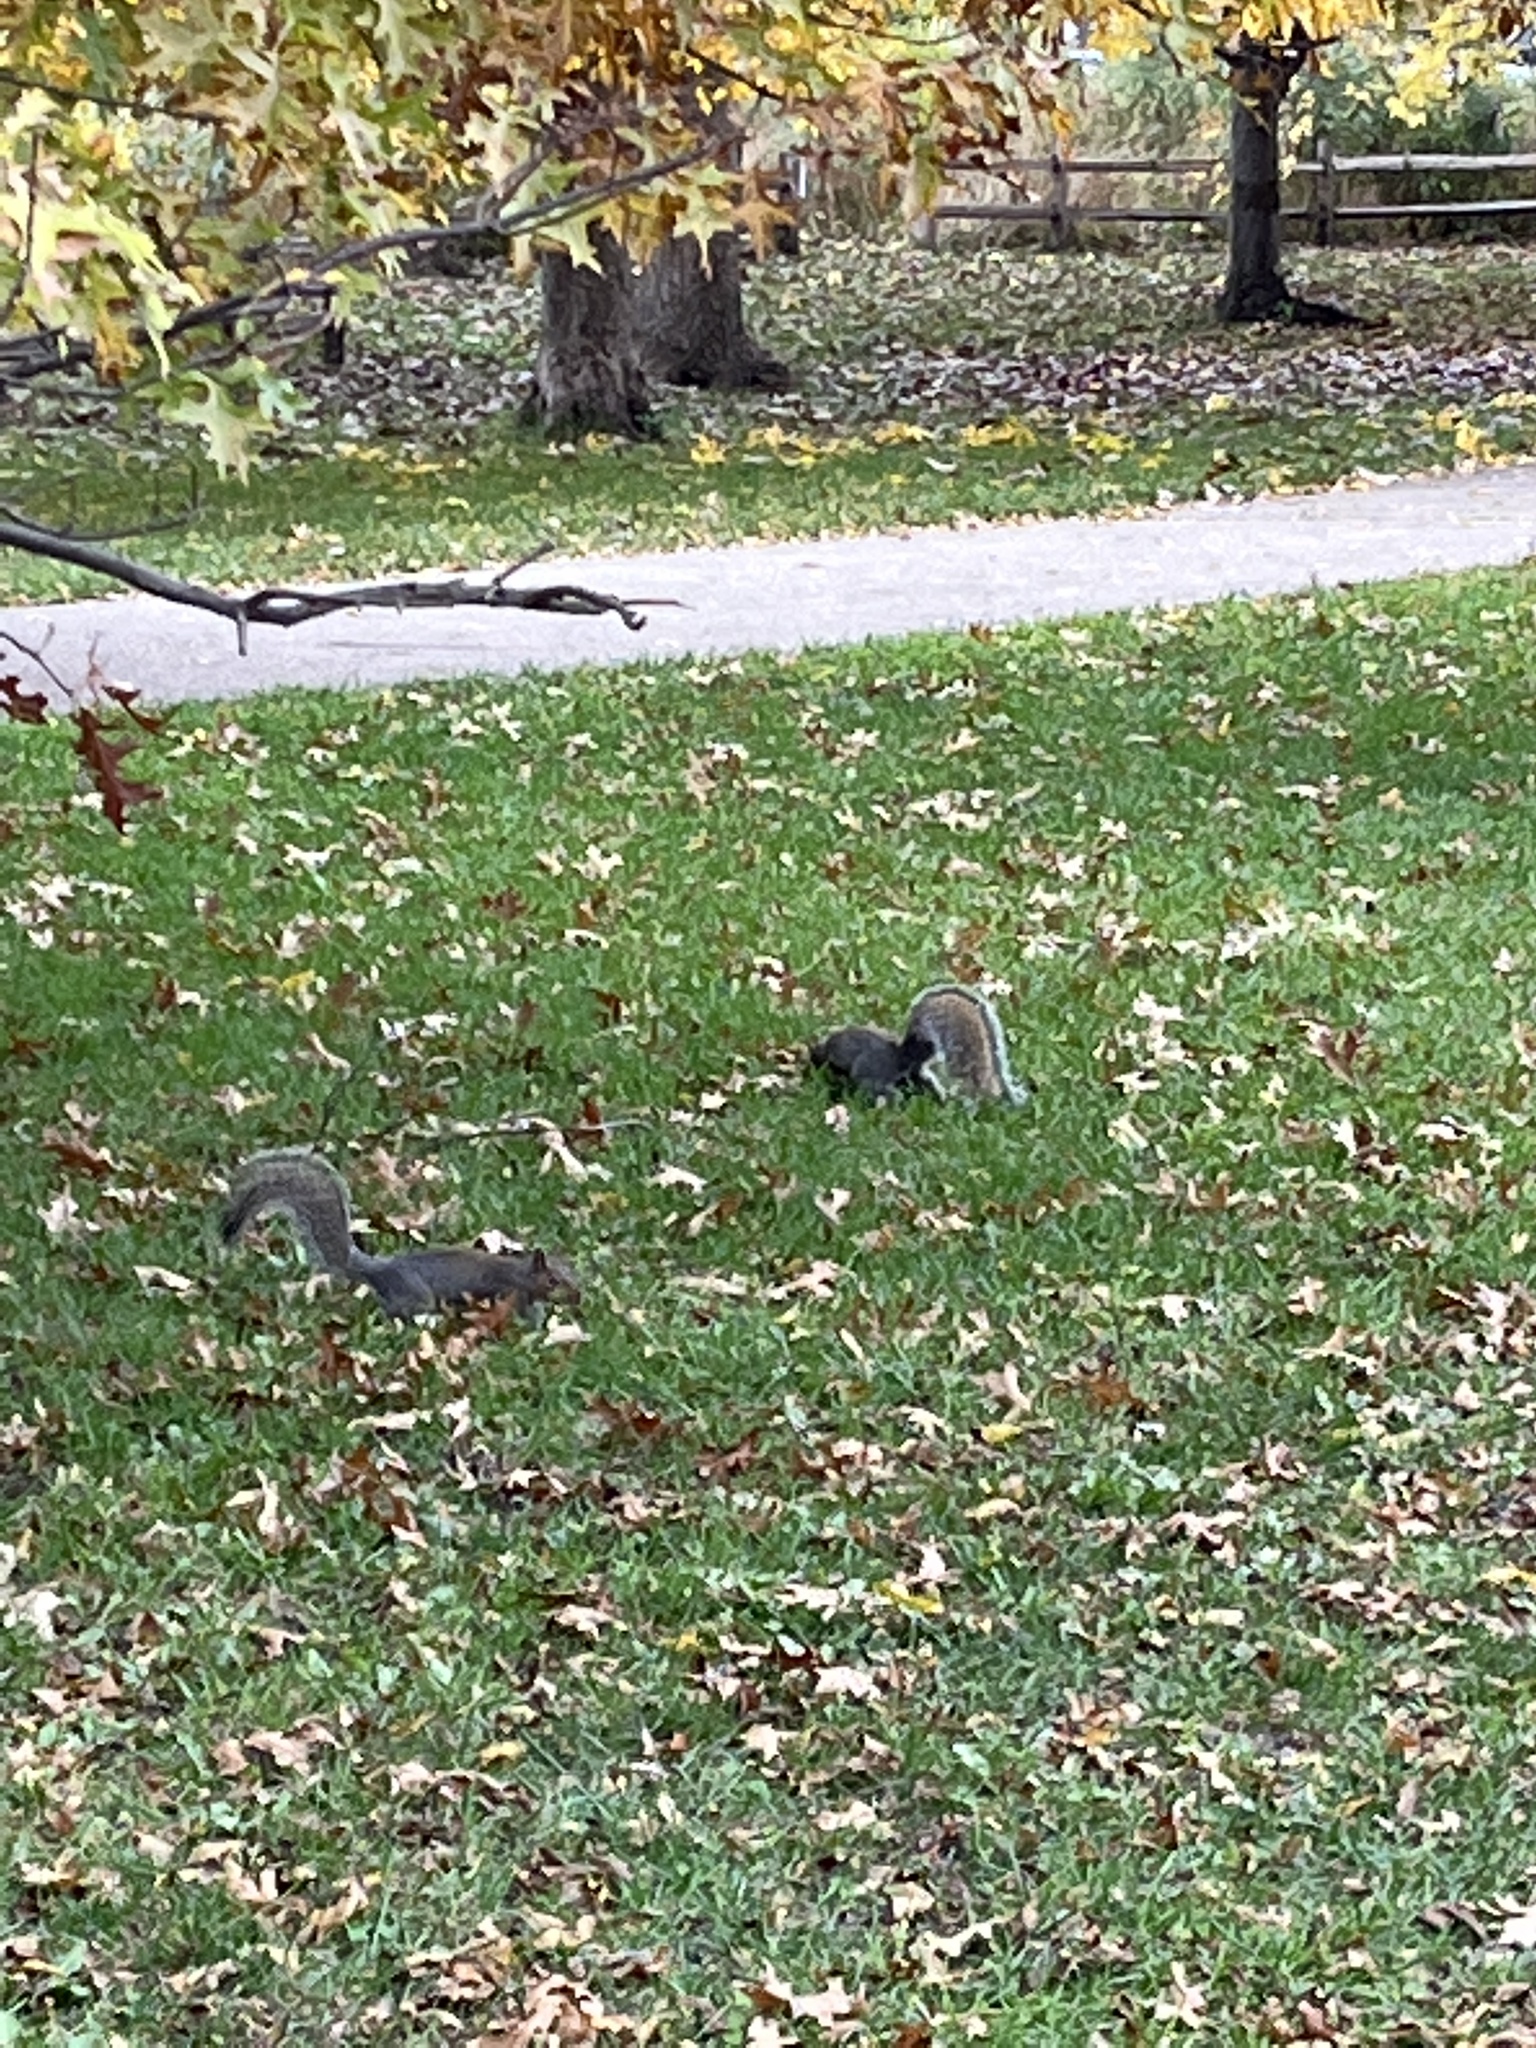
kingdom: Animalia
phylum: Chordata
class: Mammalia
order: Rodentia
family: Sciuridae
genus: Sciurus
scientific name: Sciurus carolinensis
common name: Eastern gray squirrel
